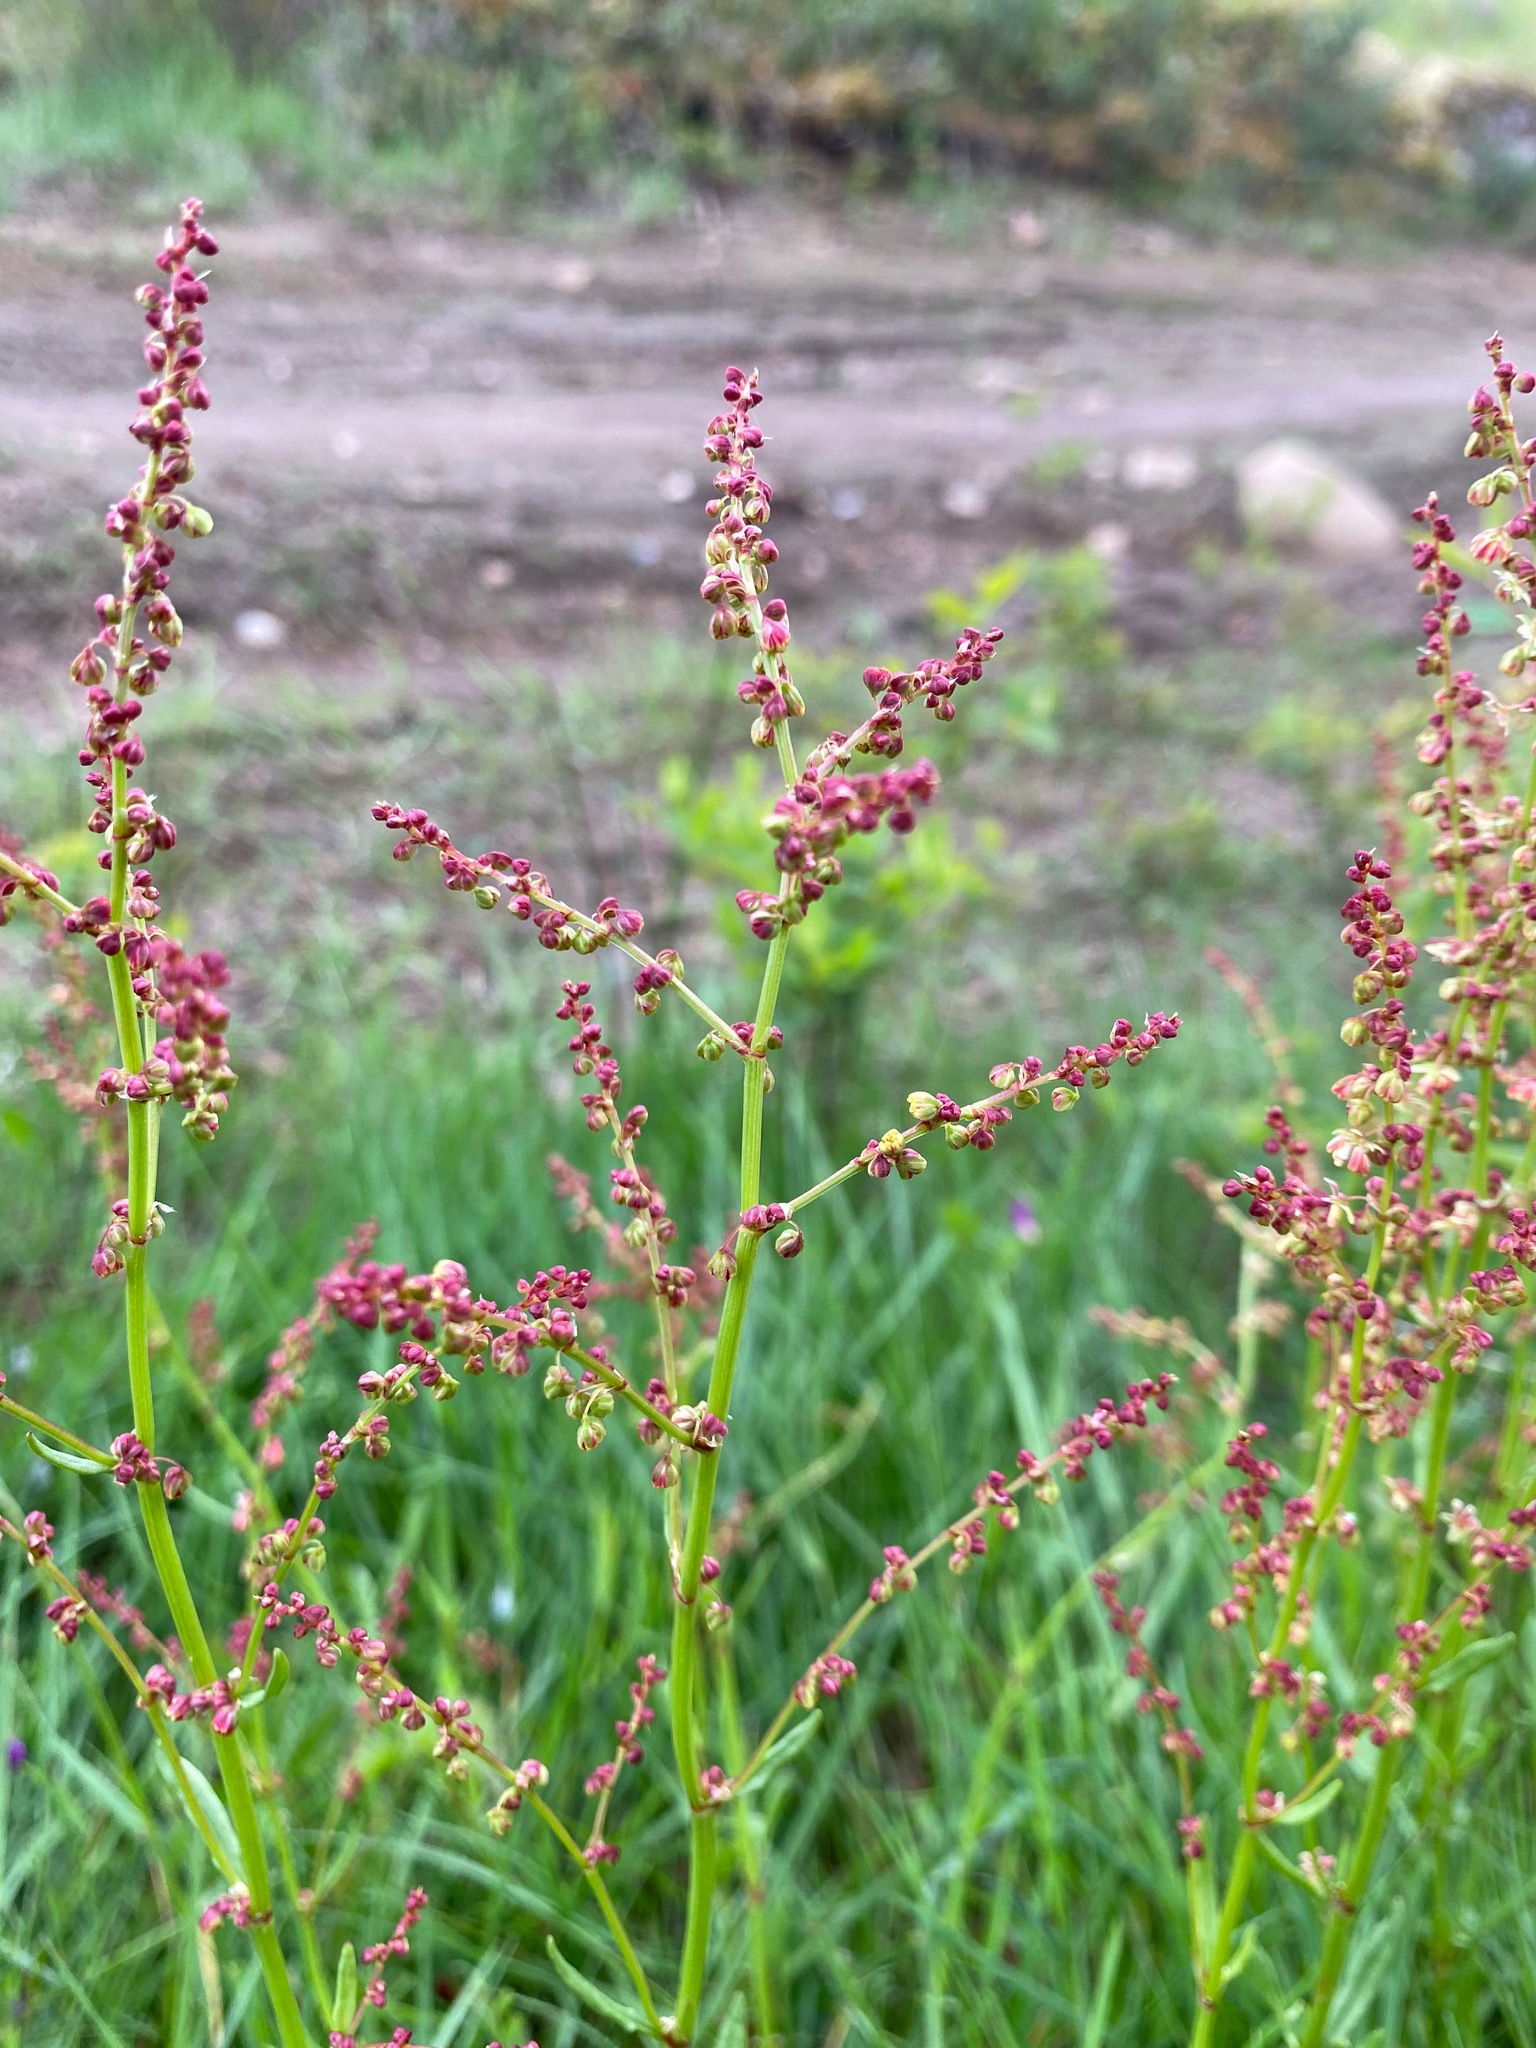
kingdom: Plantae
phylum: Tracheophyta
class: Magnoliopsida
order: Caryophyllales
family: Polygonaceae
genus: Rumex
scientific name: Rumex acetosella
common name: Common sheep sorrel
